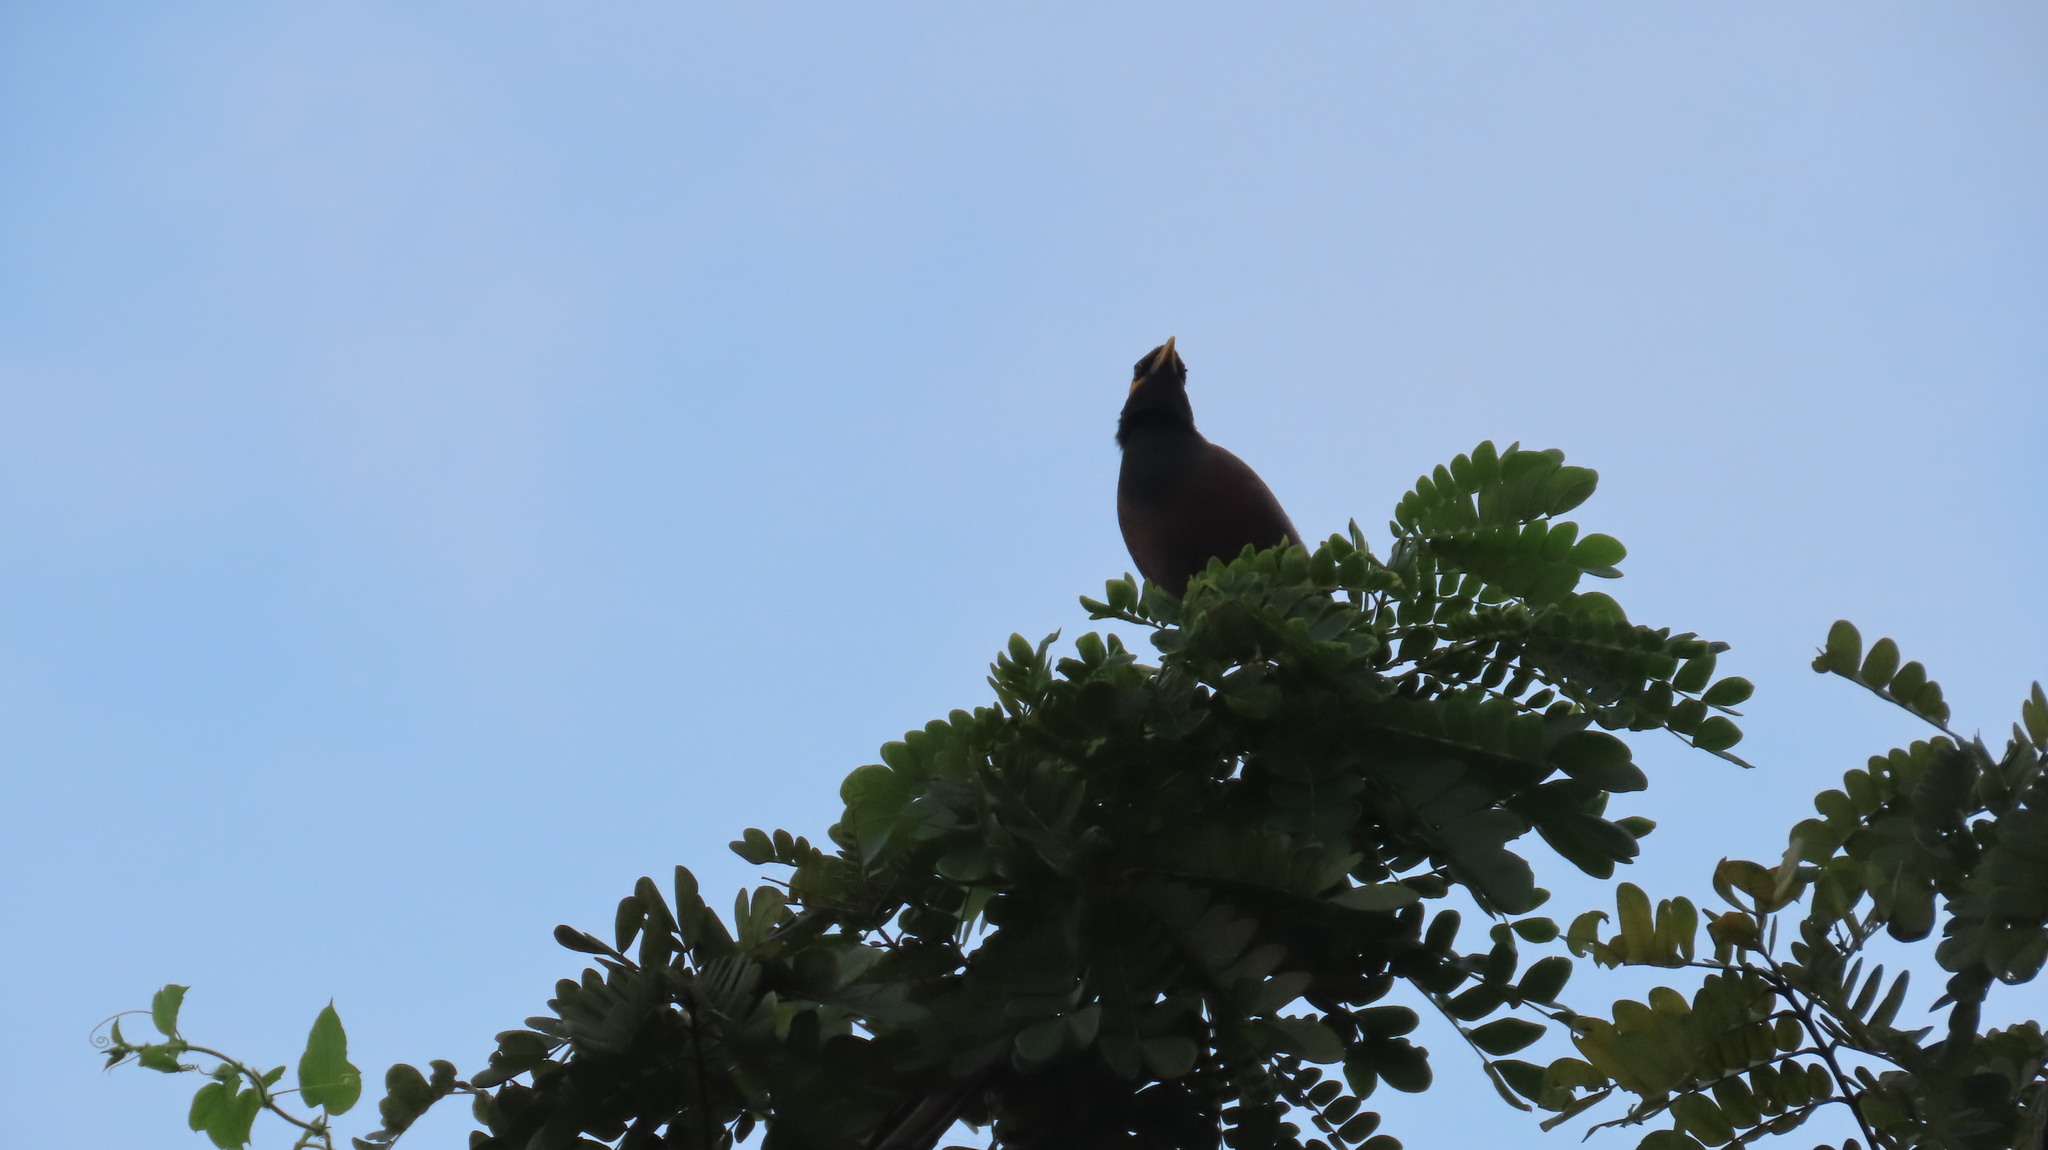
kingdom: Animalia
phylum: Chordata
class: Aves
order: Passeriformes
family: Sturnidae
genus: Acridotheres
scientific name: Acridotheres tristis
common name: Common myna
